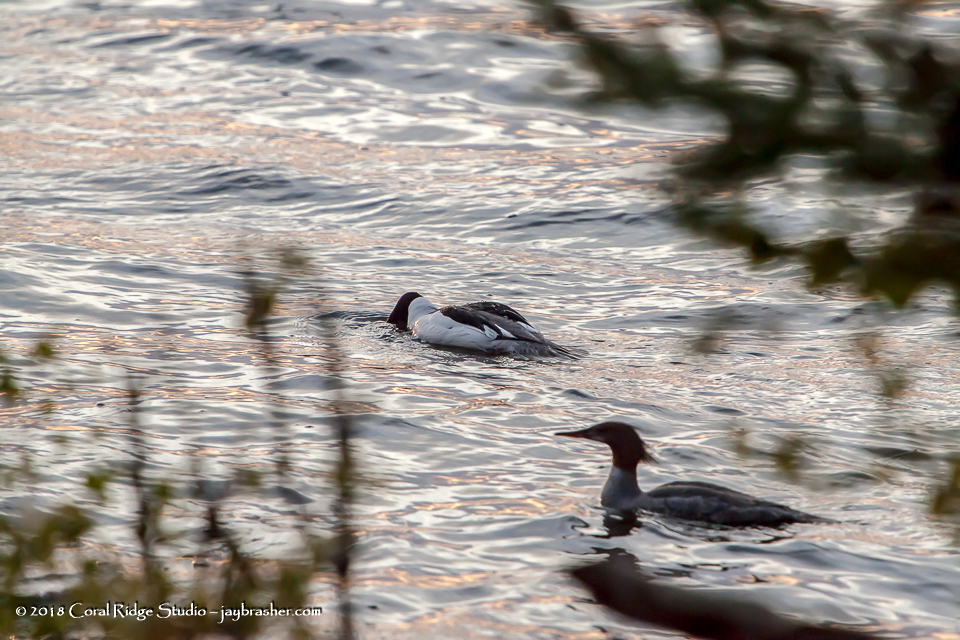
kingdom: Animalia
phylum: Chordata
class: Aves
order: Anseriformes
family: Anatidae
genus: Mergus
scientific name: Mergus merganser
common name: Common merganser
